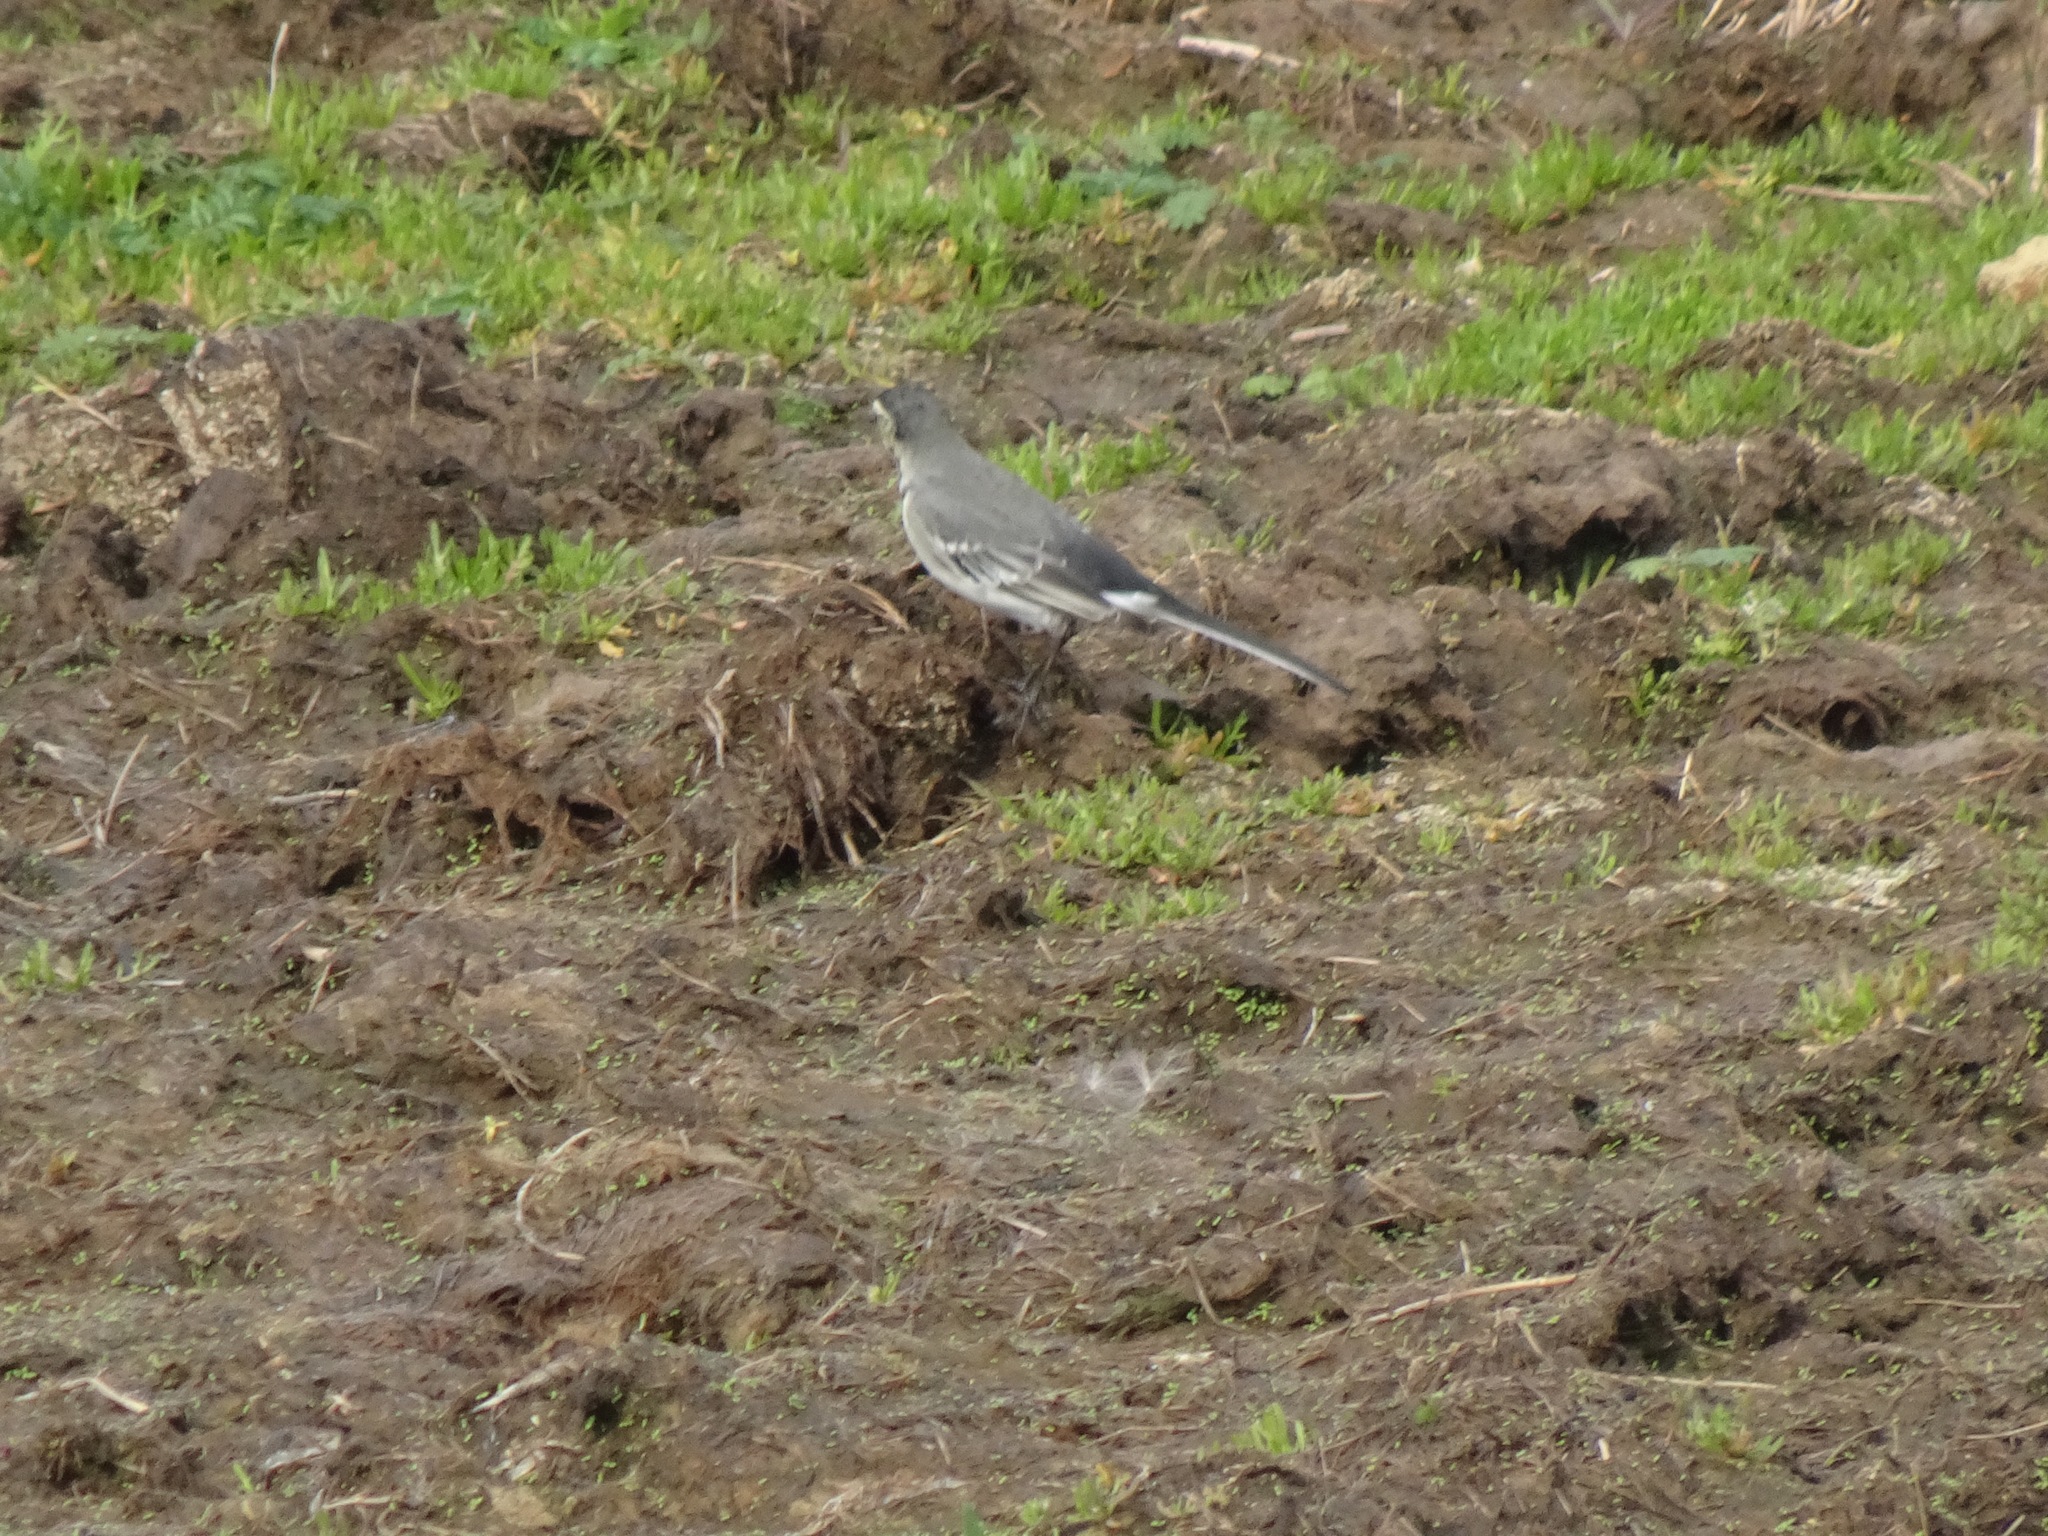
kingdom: Animalia
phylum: Chordata
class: Aves
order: Passeriformes
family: Motacillidae
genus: Motacilla
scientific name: Motacilla alba
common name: White wagtail
